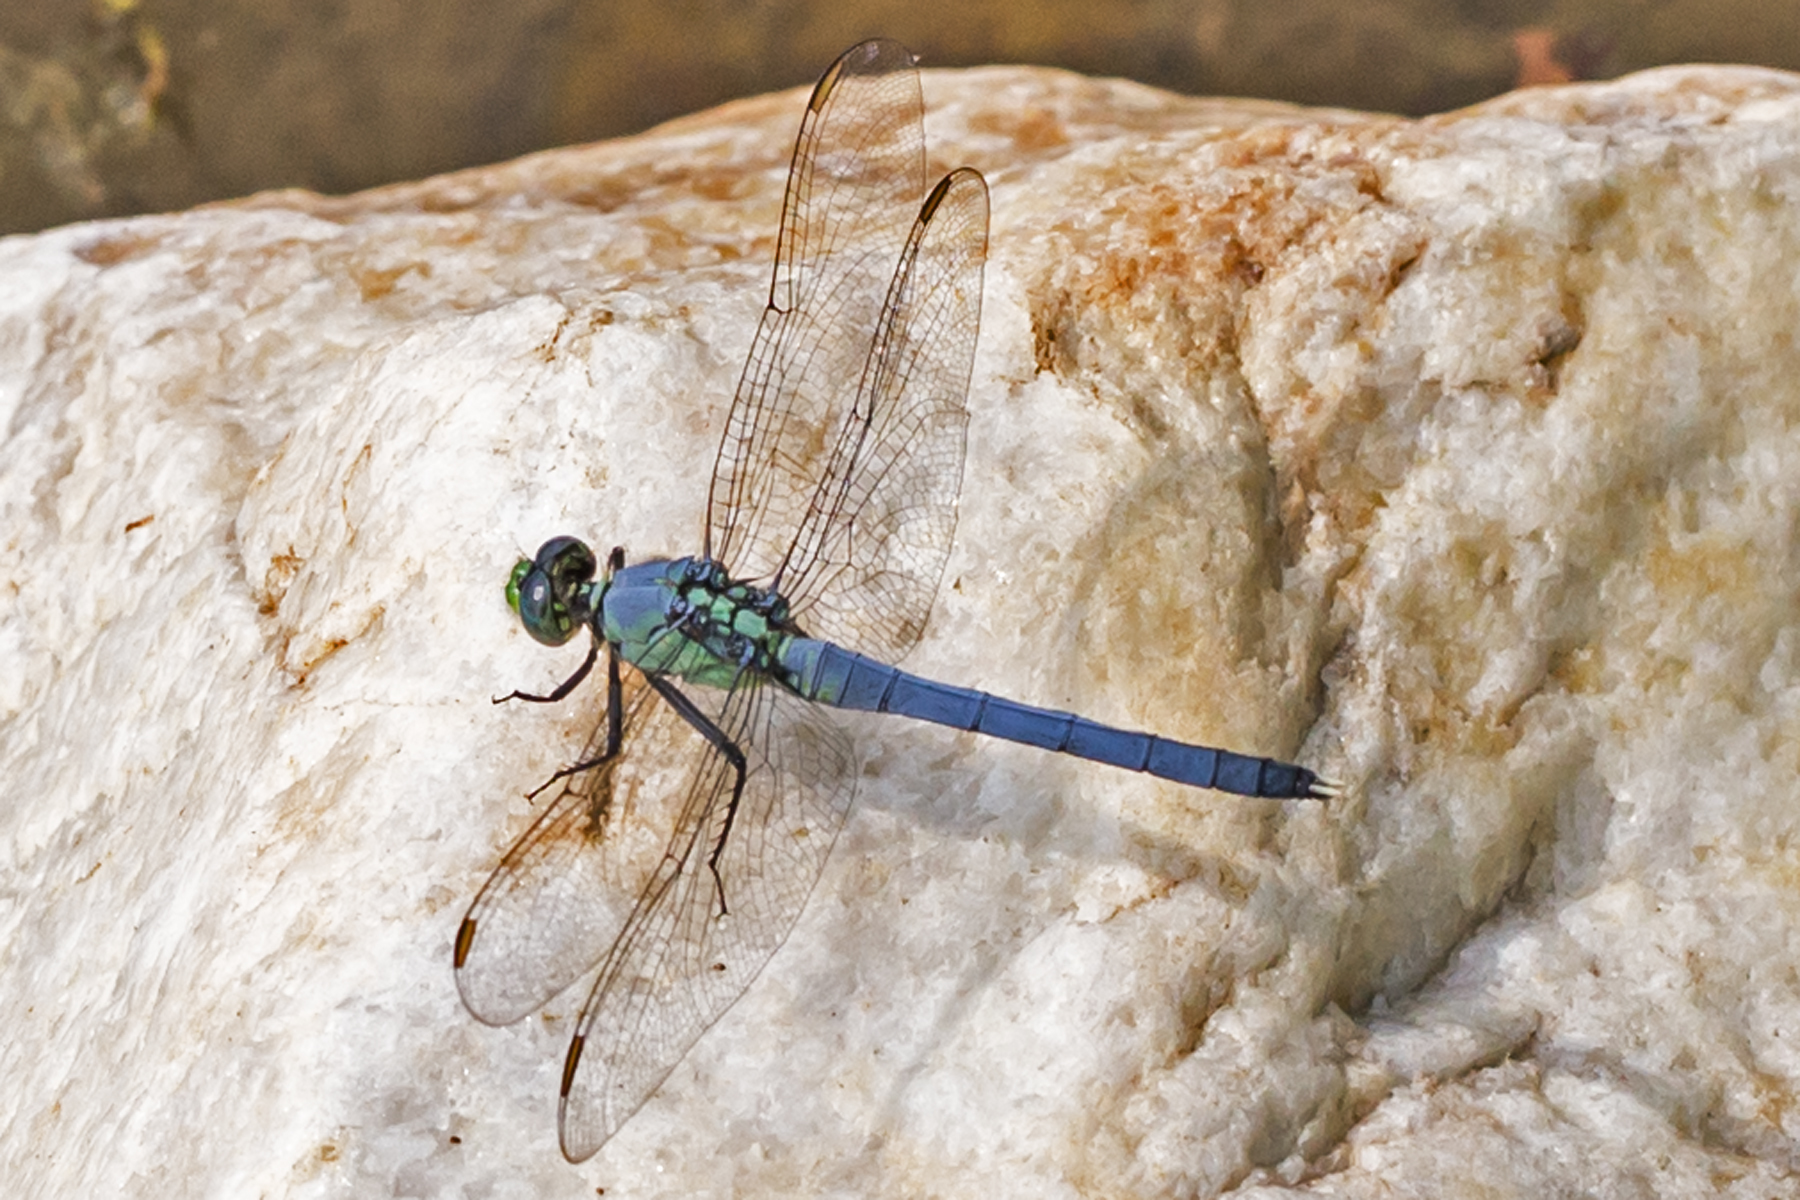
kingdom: Animalia
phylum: Arthropoda
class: Insecta
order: Odonata
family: Libellulidae
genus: Erythemis
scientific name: Erythemis simplicicollis
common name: Eastern pondhawk
